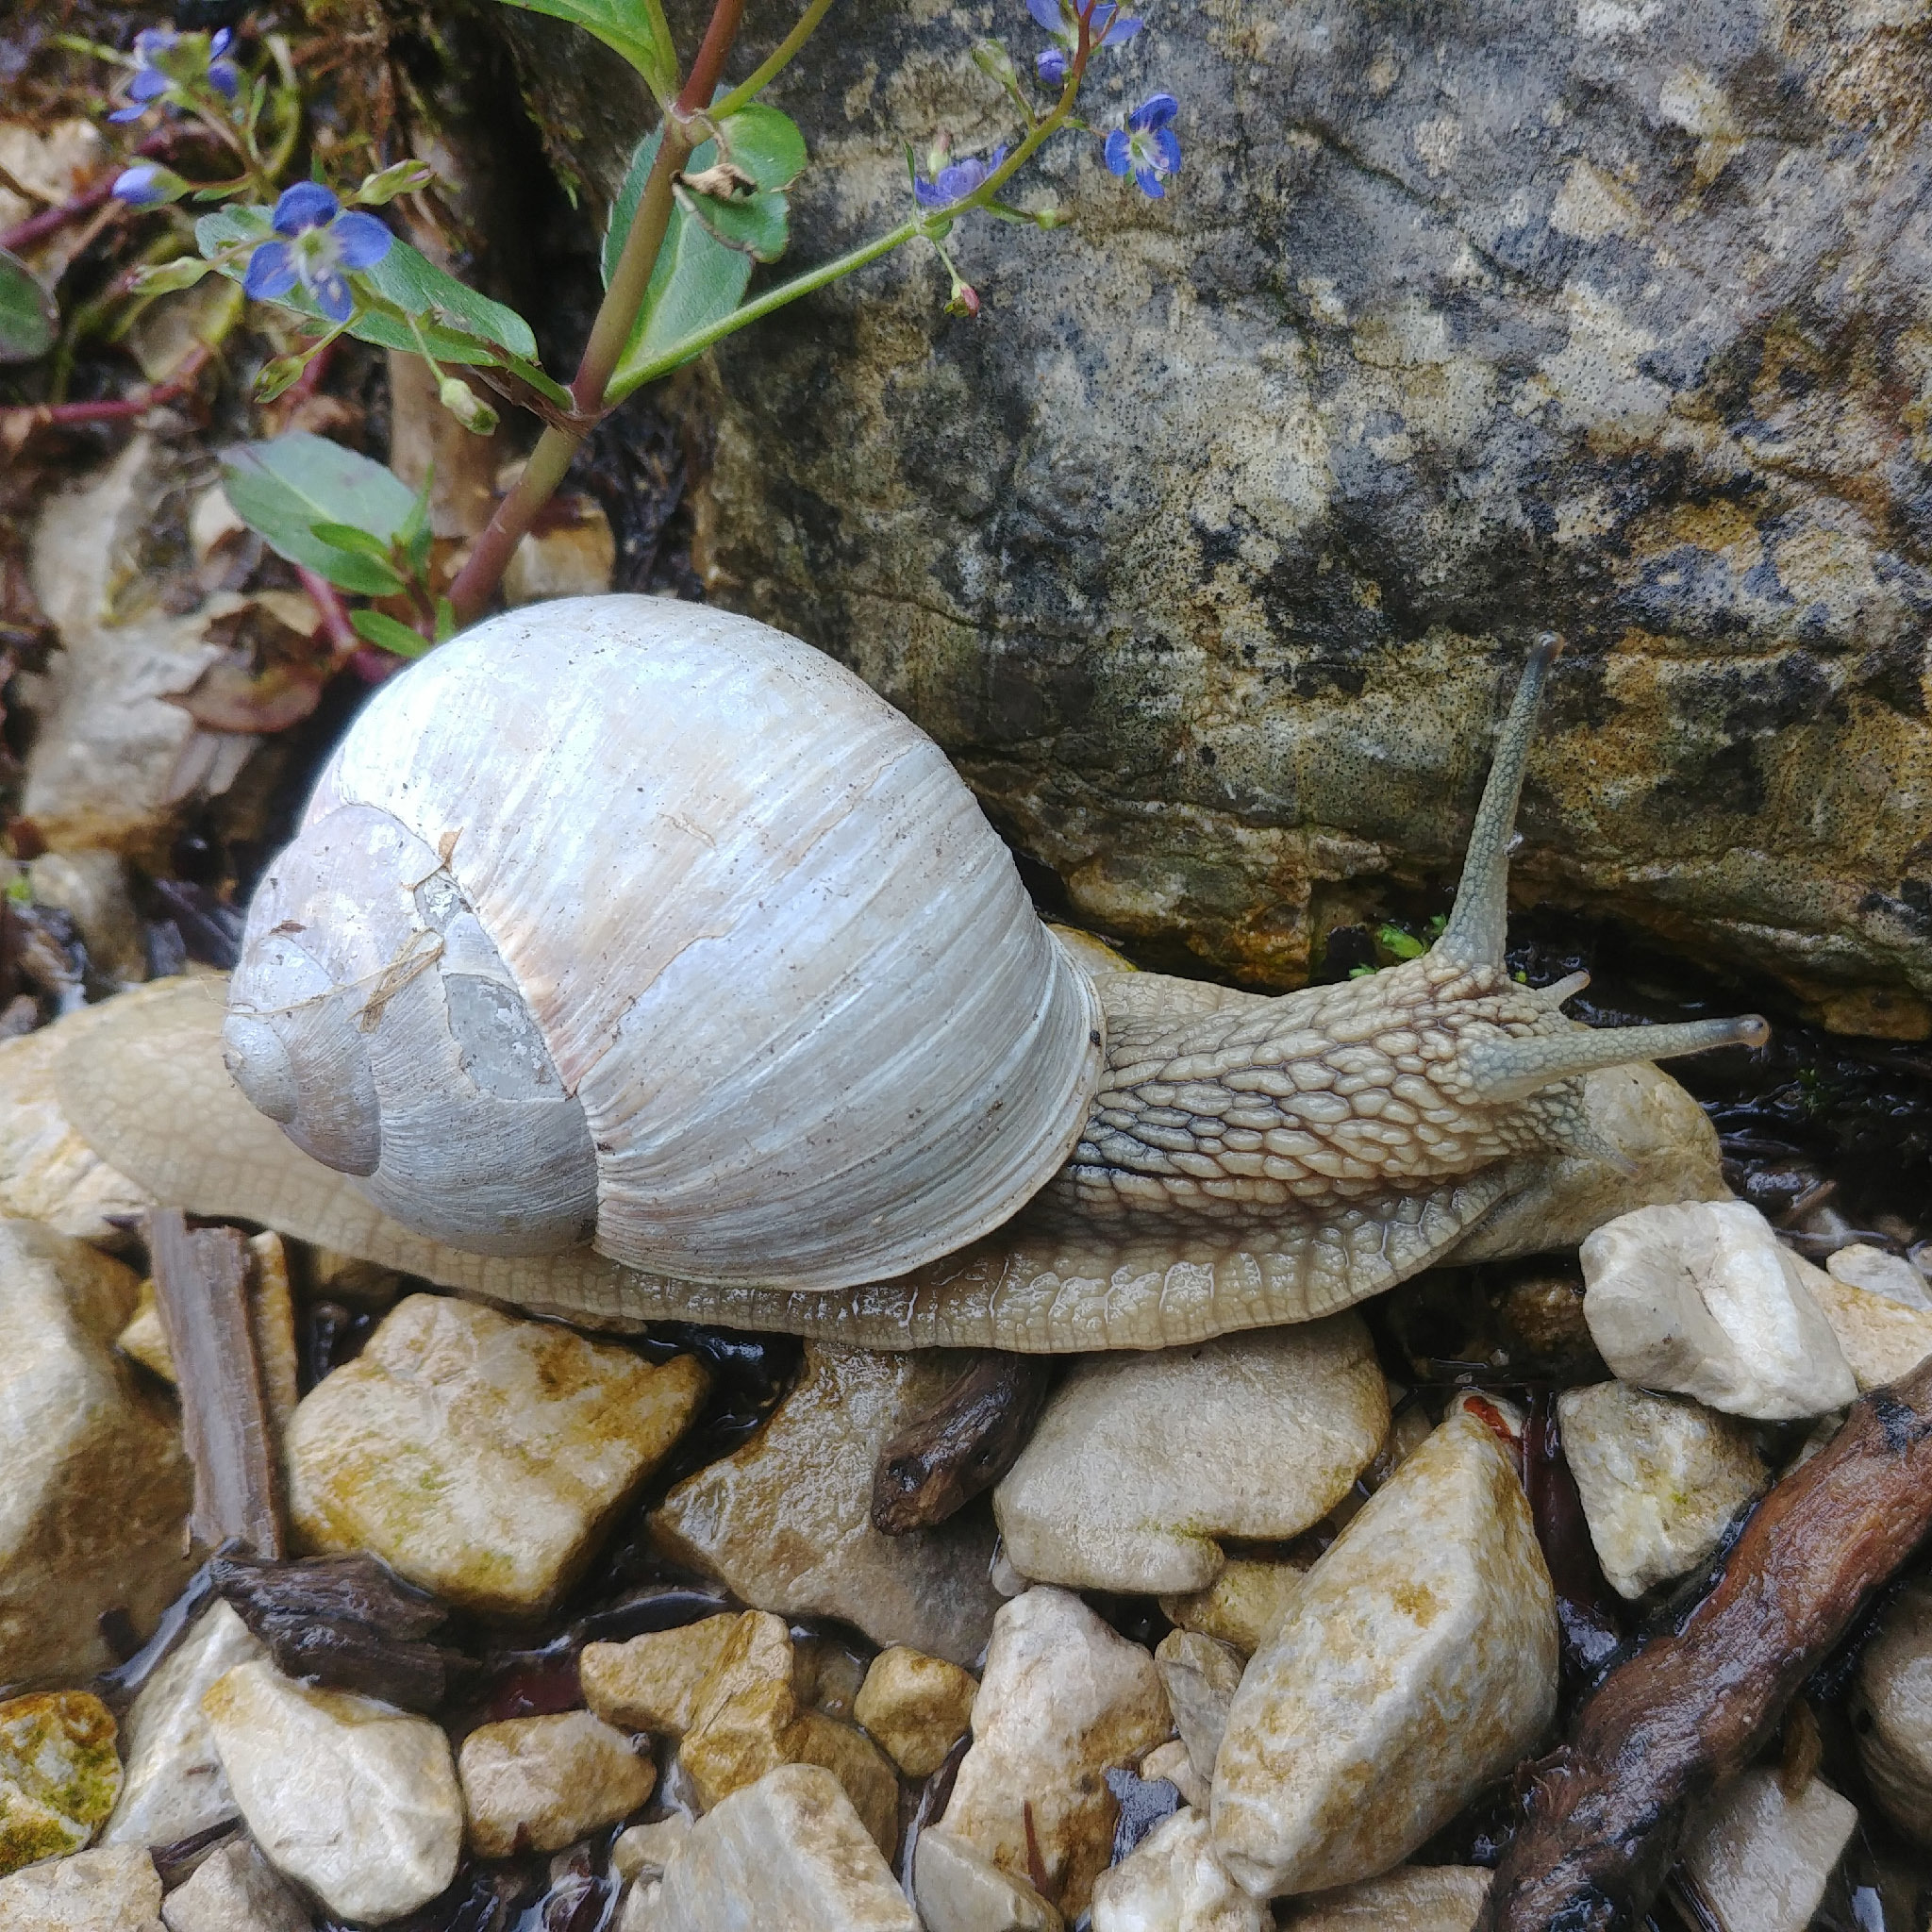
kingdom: Animalia
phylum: Mollusca
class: Gastropoda
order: Stylommatophora
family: Helicidae
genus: Helix
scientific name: Helix pomatia
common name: Roman snail
